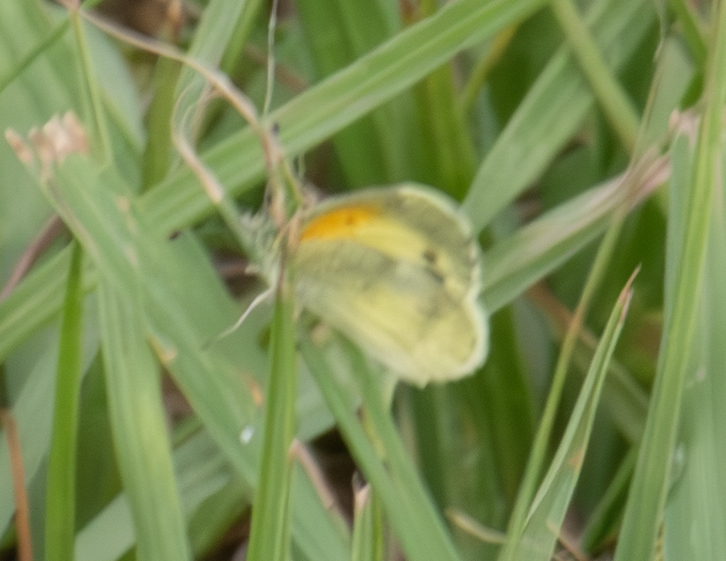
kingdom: Animalia
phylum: Arthropoda
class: Insecta
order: Lepidoptera
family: Pieridae
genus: Nathalis
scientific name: Nathalis iole
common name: Dainty sulphur
